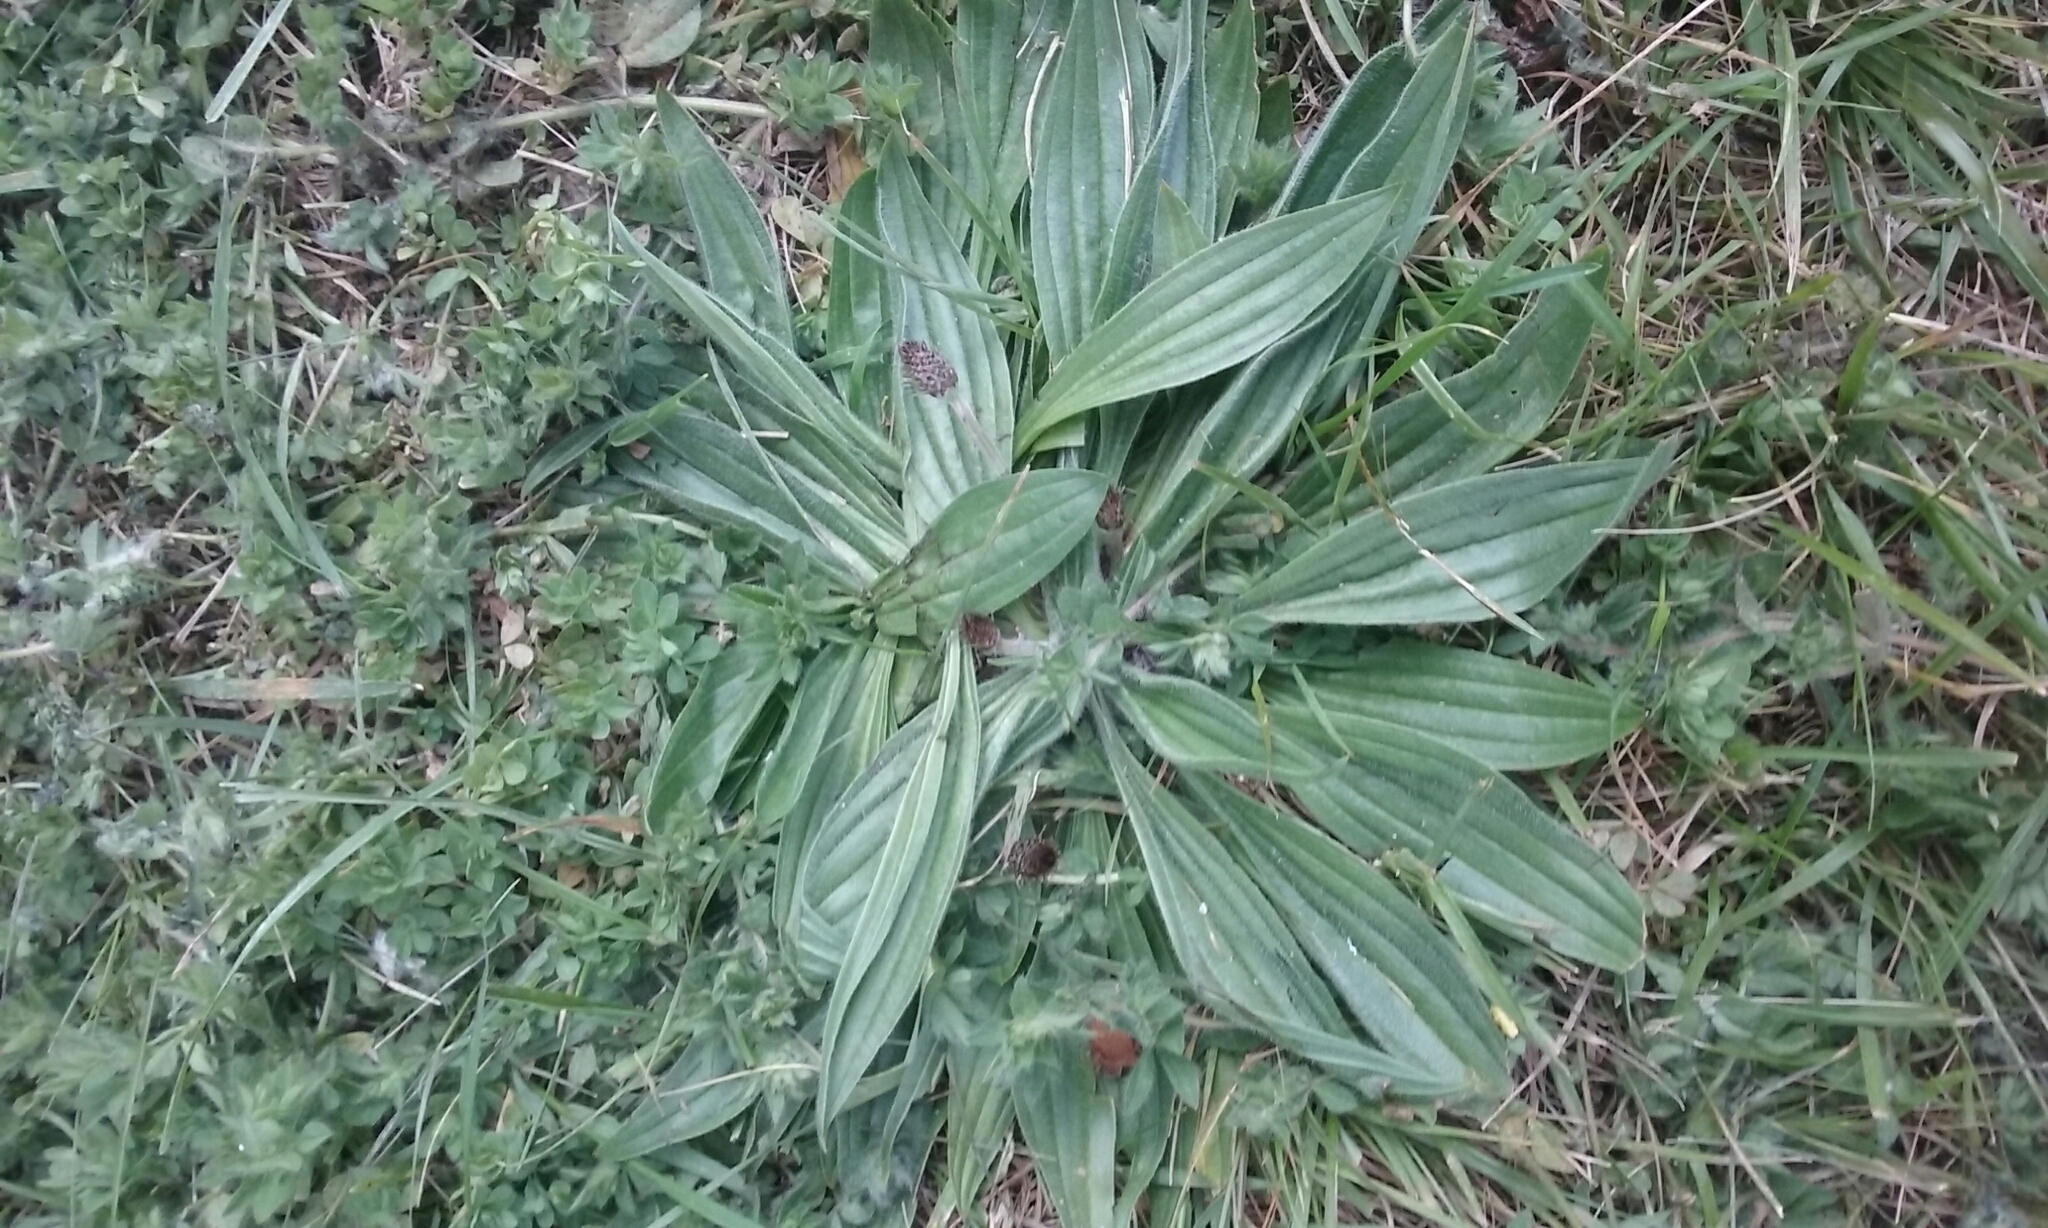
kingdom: Plantae
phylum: Tracheophyta
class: Magnoliopsida
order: Lamiales
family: Plantaginaceae
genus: Plantago
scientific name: Plantago lanceolata
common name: Ribwort plantain
